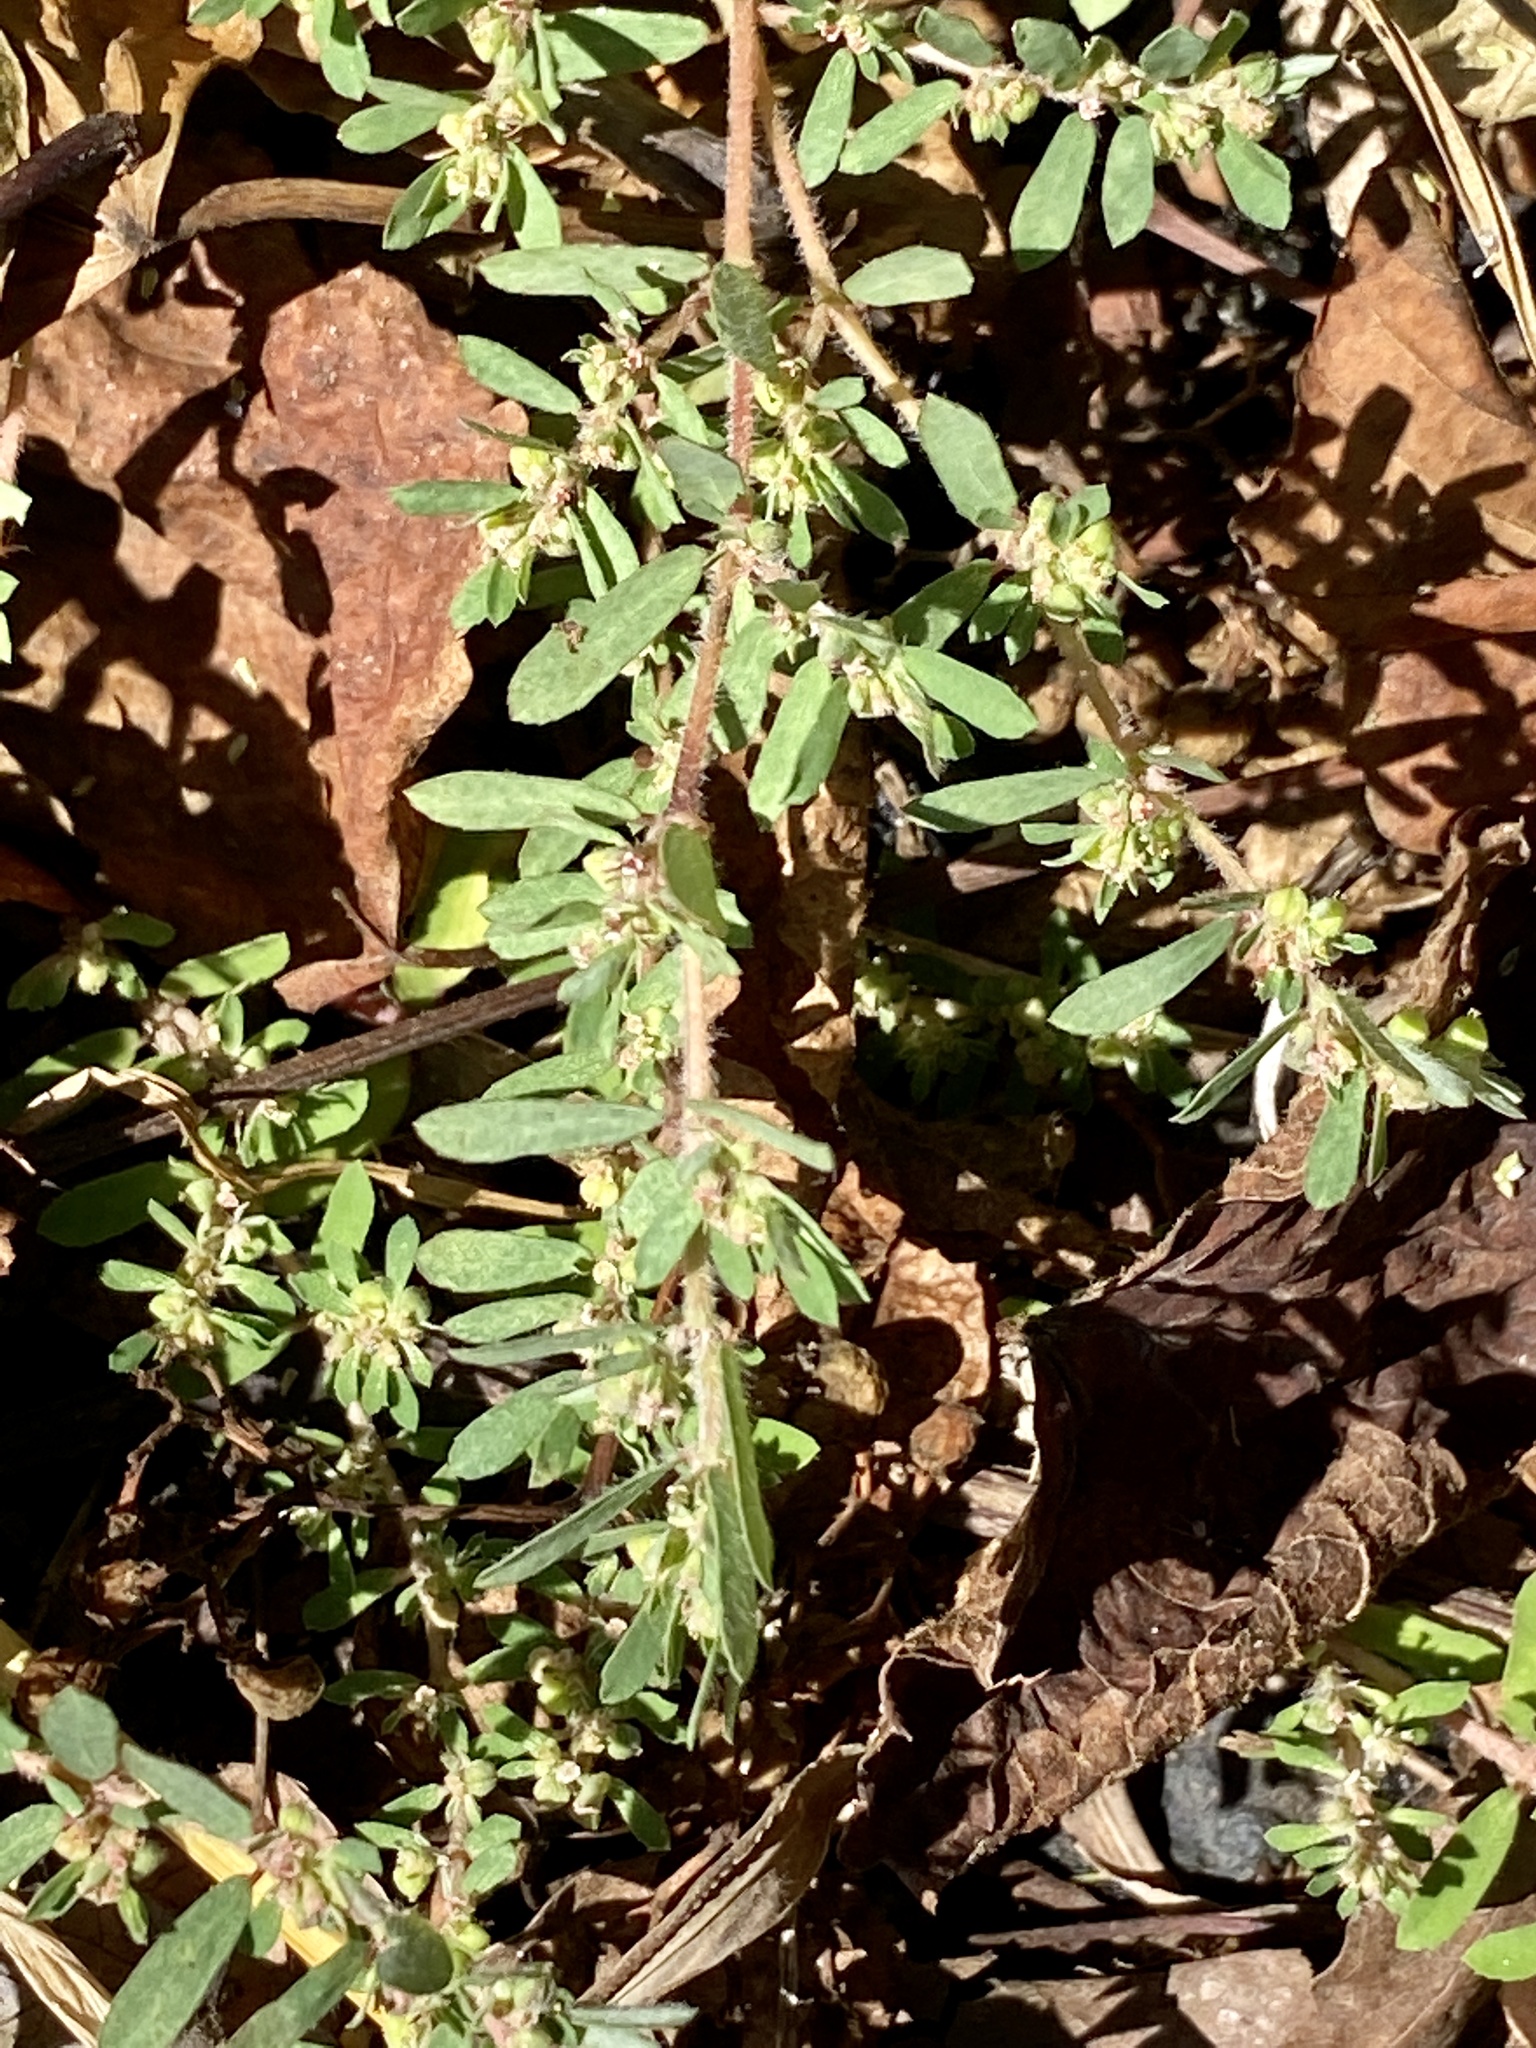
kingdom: Plantae
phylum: Tracheophyta
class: Magnoliopsida
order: Malpighiales
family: Euphorbiaceae
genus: Euphorbia
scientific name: Euphorbia maculata
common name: Spotted spurge
